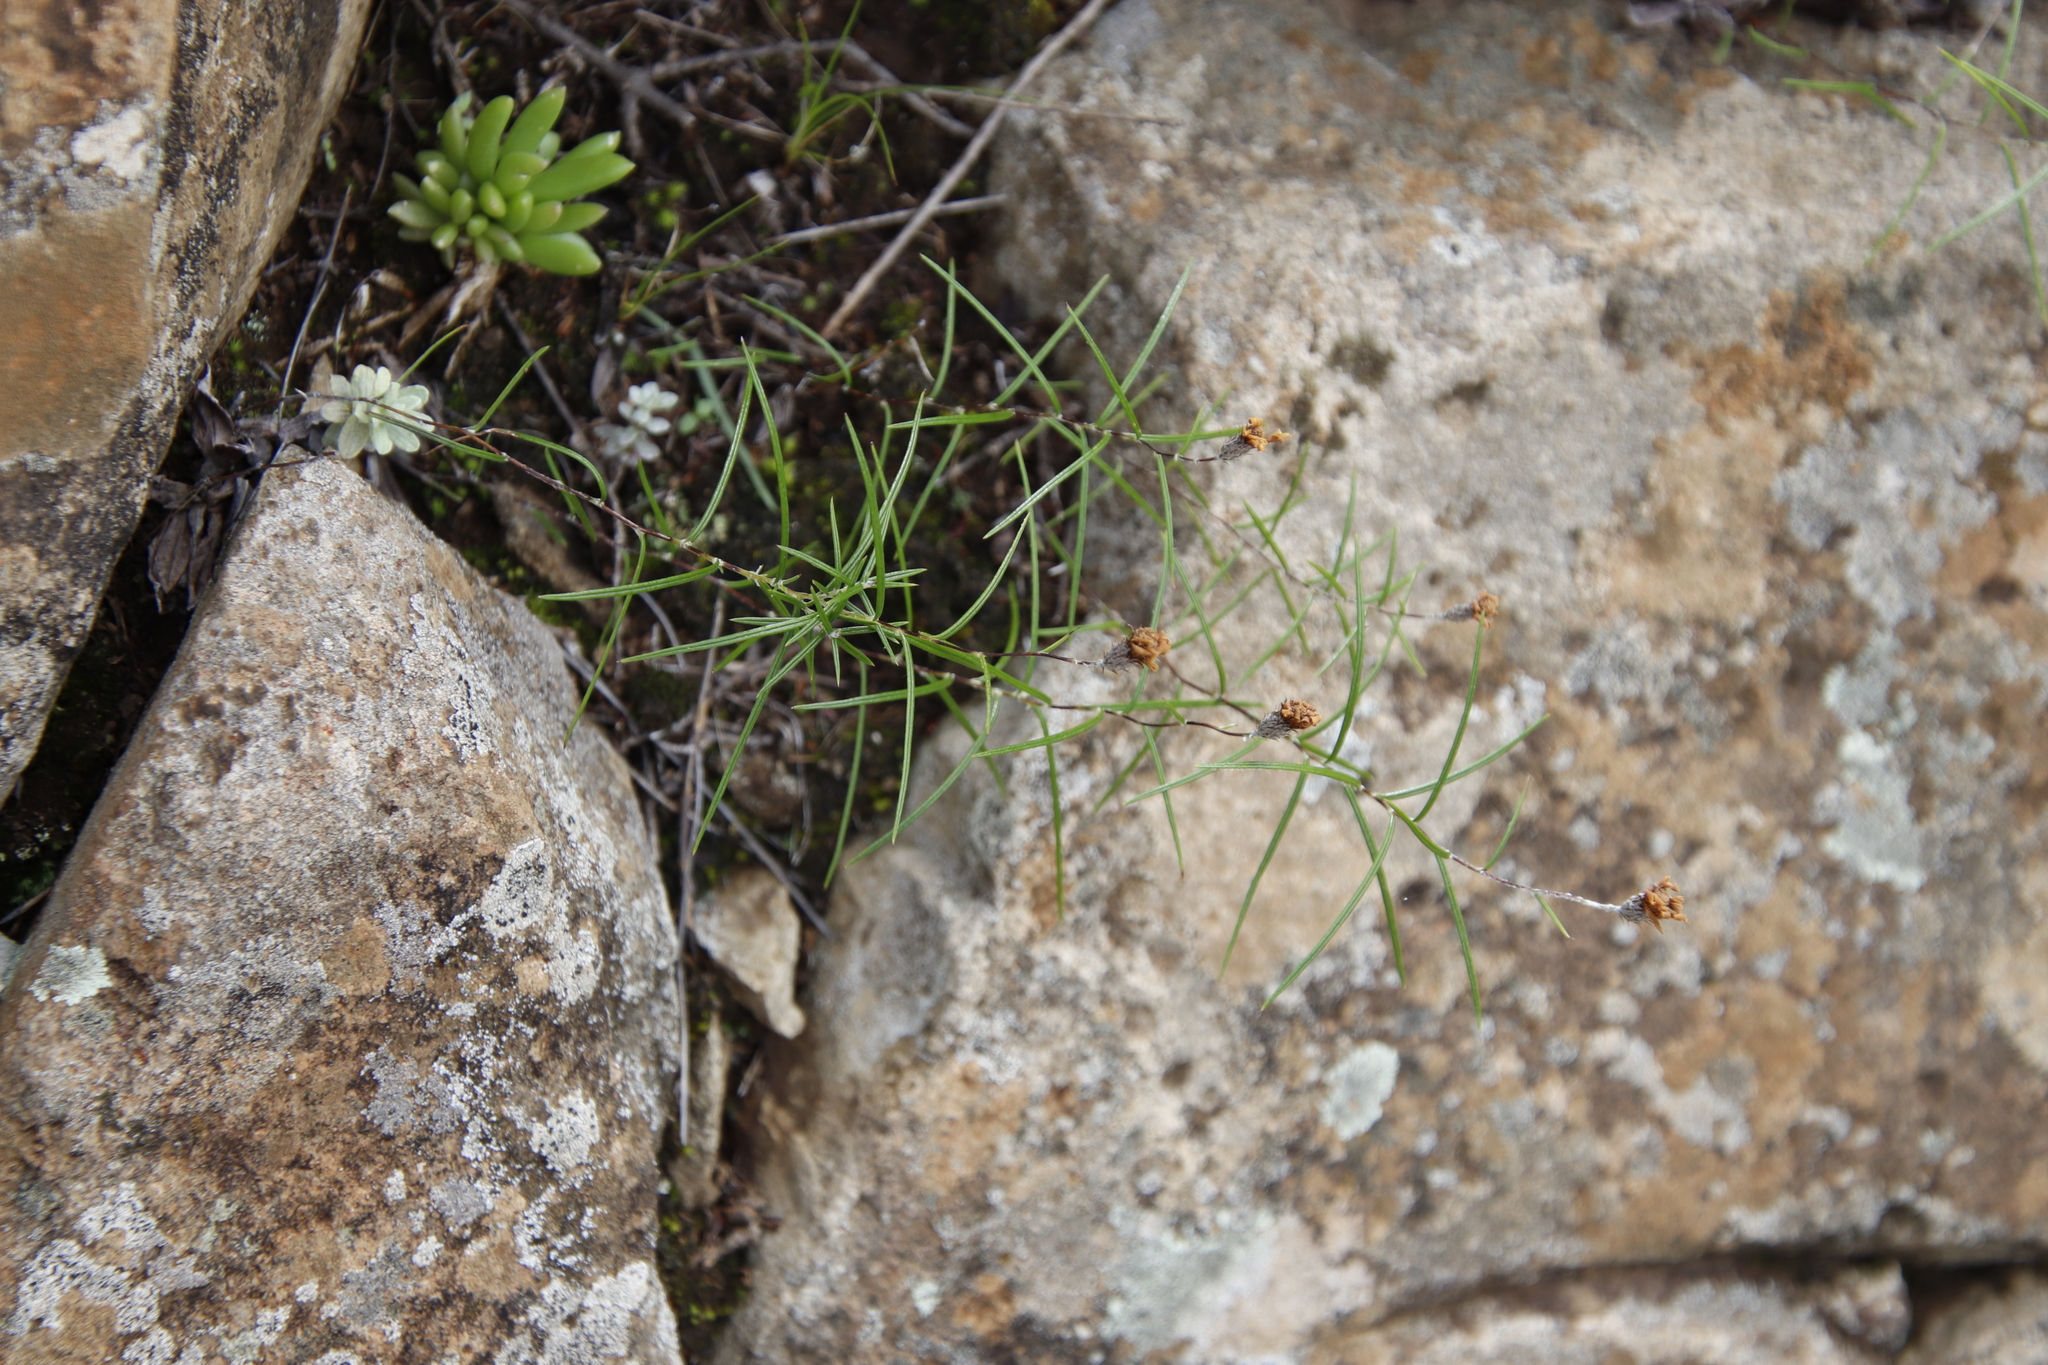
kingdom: Plantae
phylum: Tracheophyta
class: Magnoliopsida
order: Asterales
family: Asteraceae
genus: Athrixia
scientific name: Athrixia angustissima
